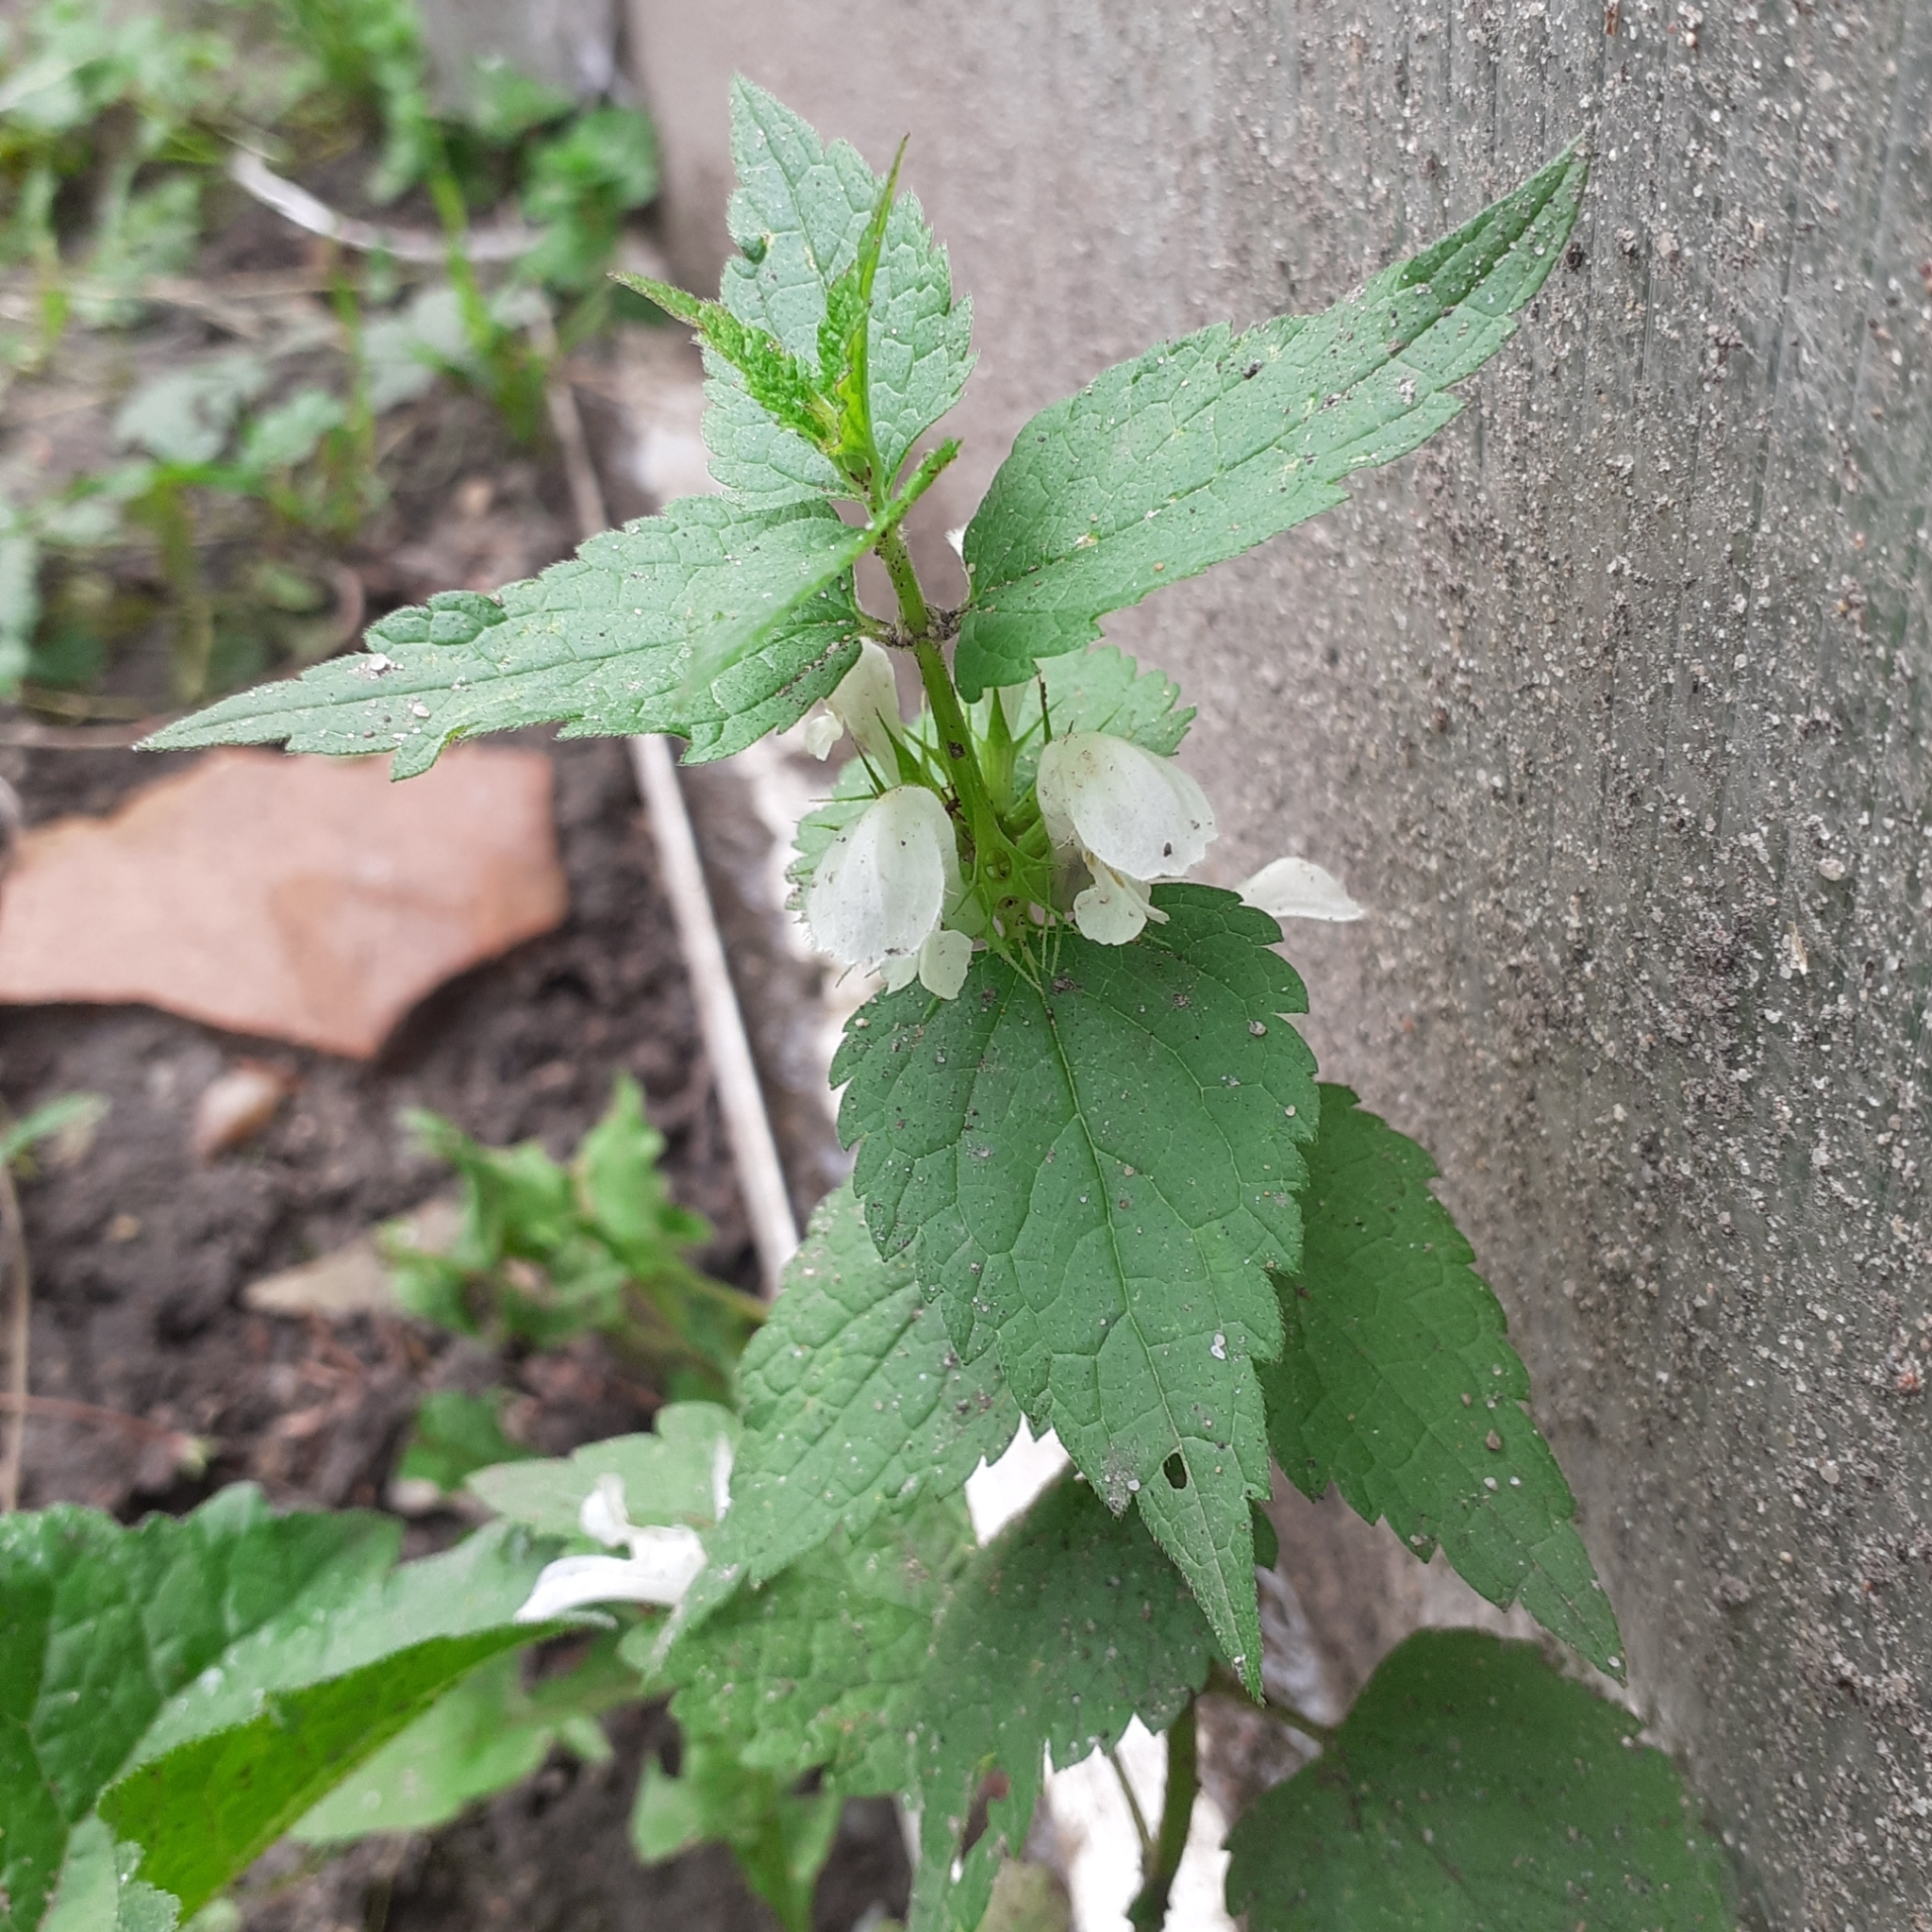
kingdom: Plantae
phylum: Tracheophyta
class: Magnoliopsida
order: Lamiales
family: Lamiaceae
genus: Lamium
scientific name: Lamium album
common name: White dead-nettle
